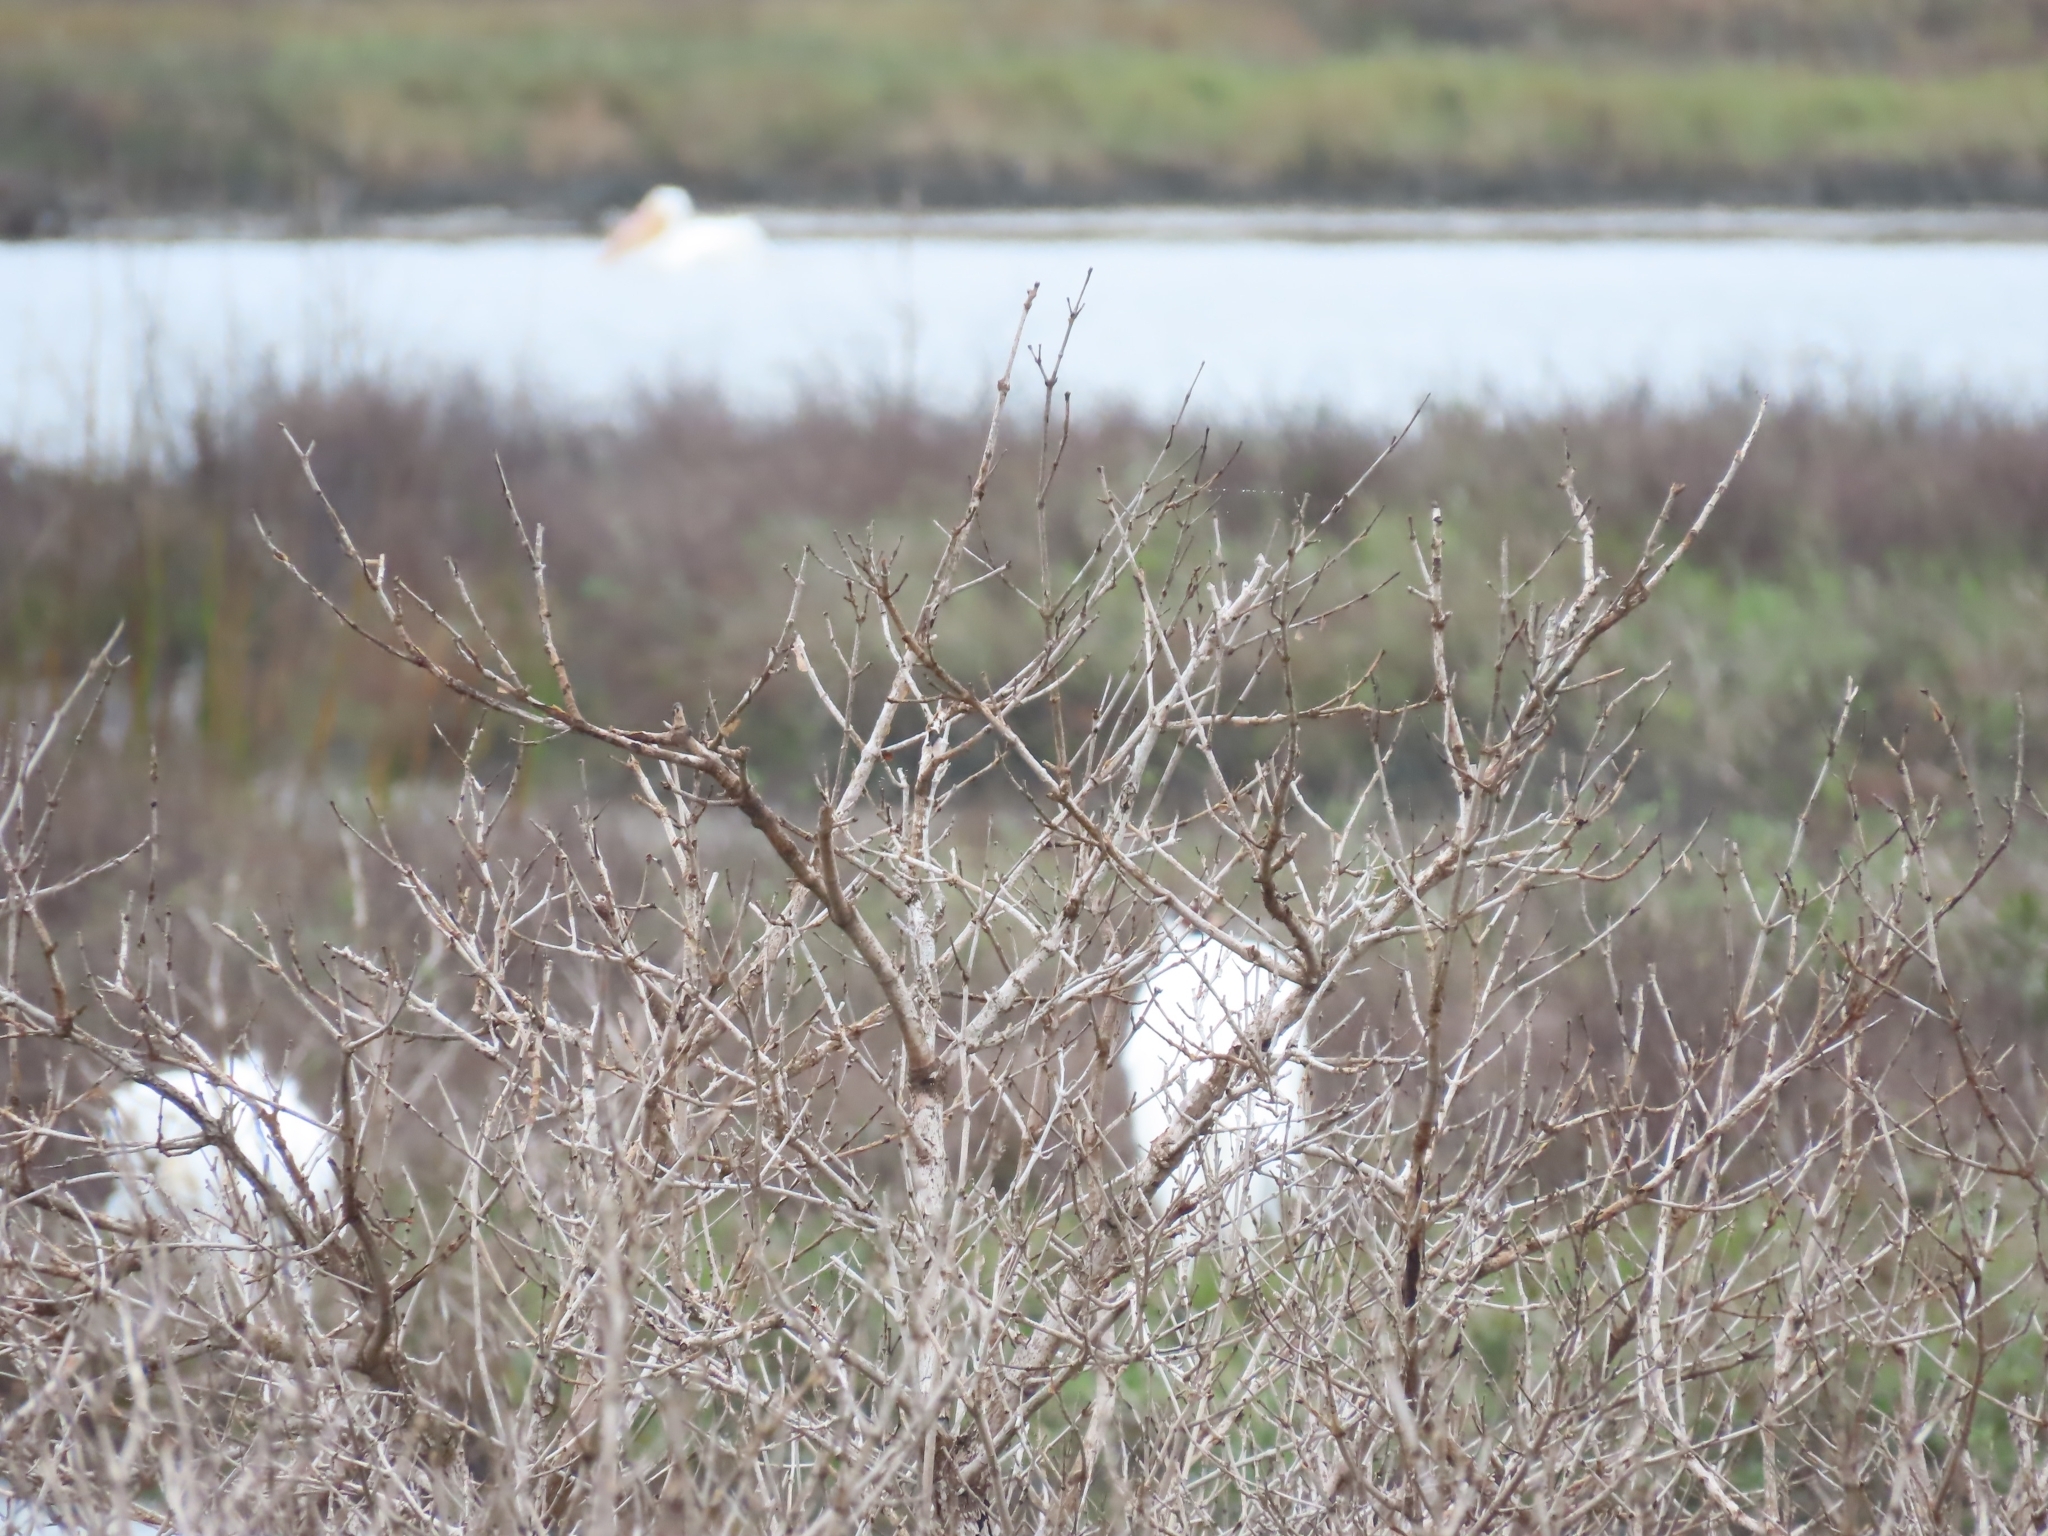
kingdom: Animalia
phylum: Chordata
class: Aves
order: Gruiformes
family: Gruidae
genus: Grus
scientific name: Grus americana
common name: Whooping crane
